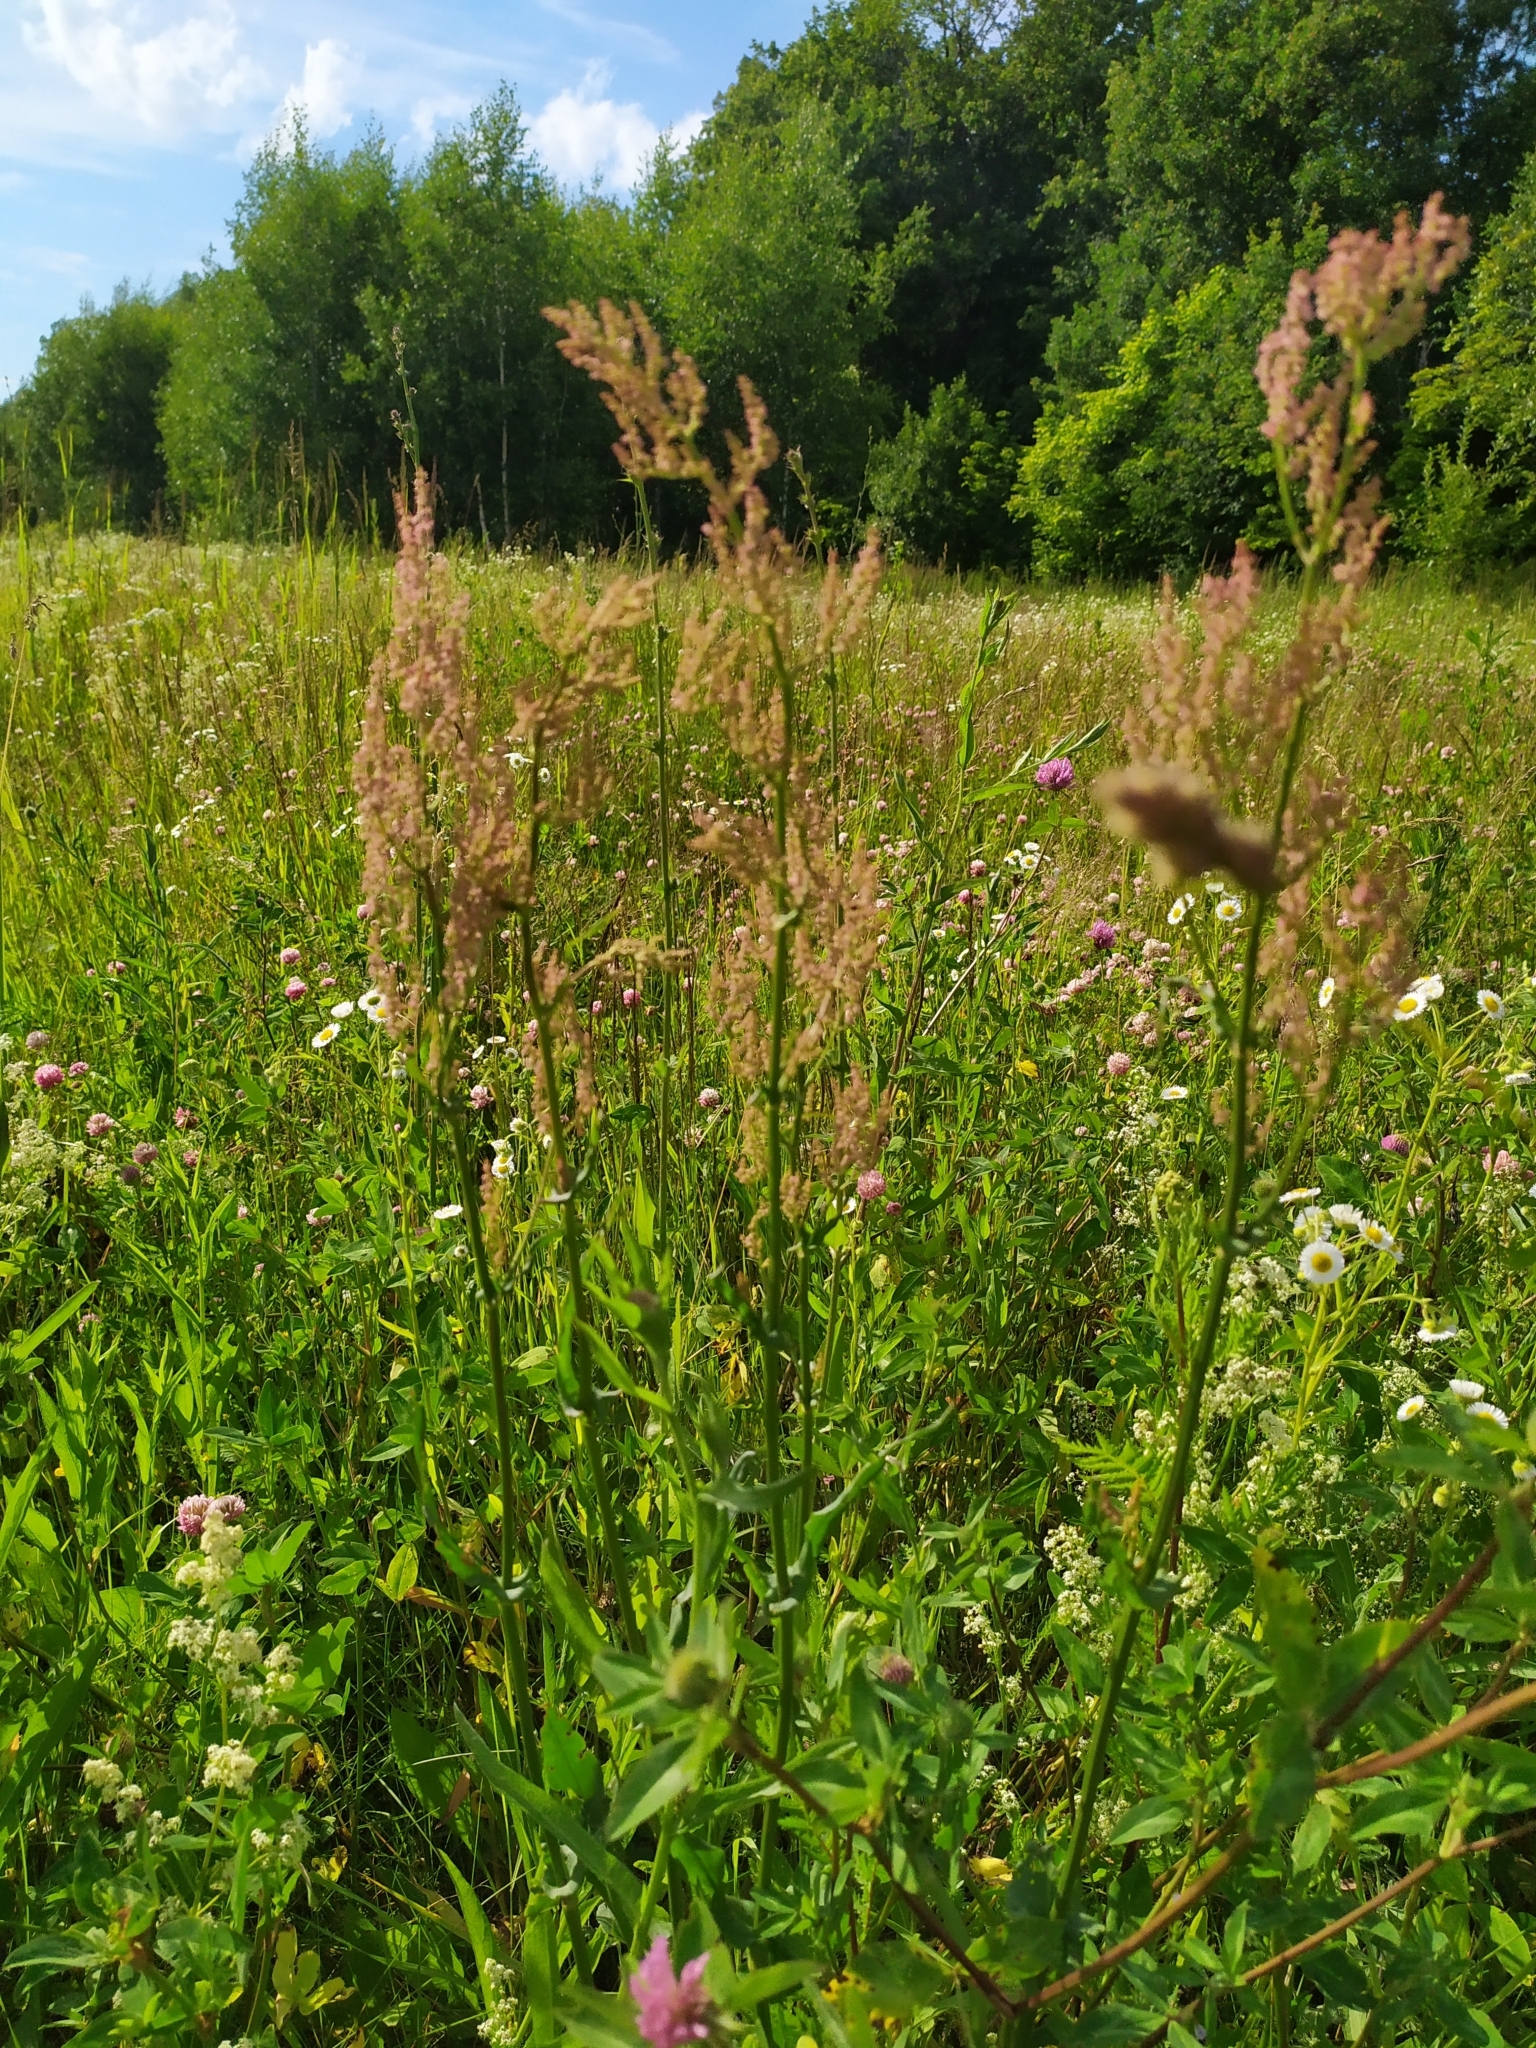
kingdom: Plantae
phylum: Tracheophyta
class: Magnoliopsida
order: Caryophyllales
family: Polygonaceae
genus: Rumex
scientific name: Rumex thyrsiflorus
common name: Garden sorrel
